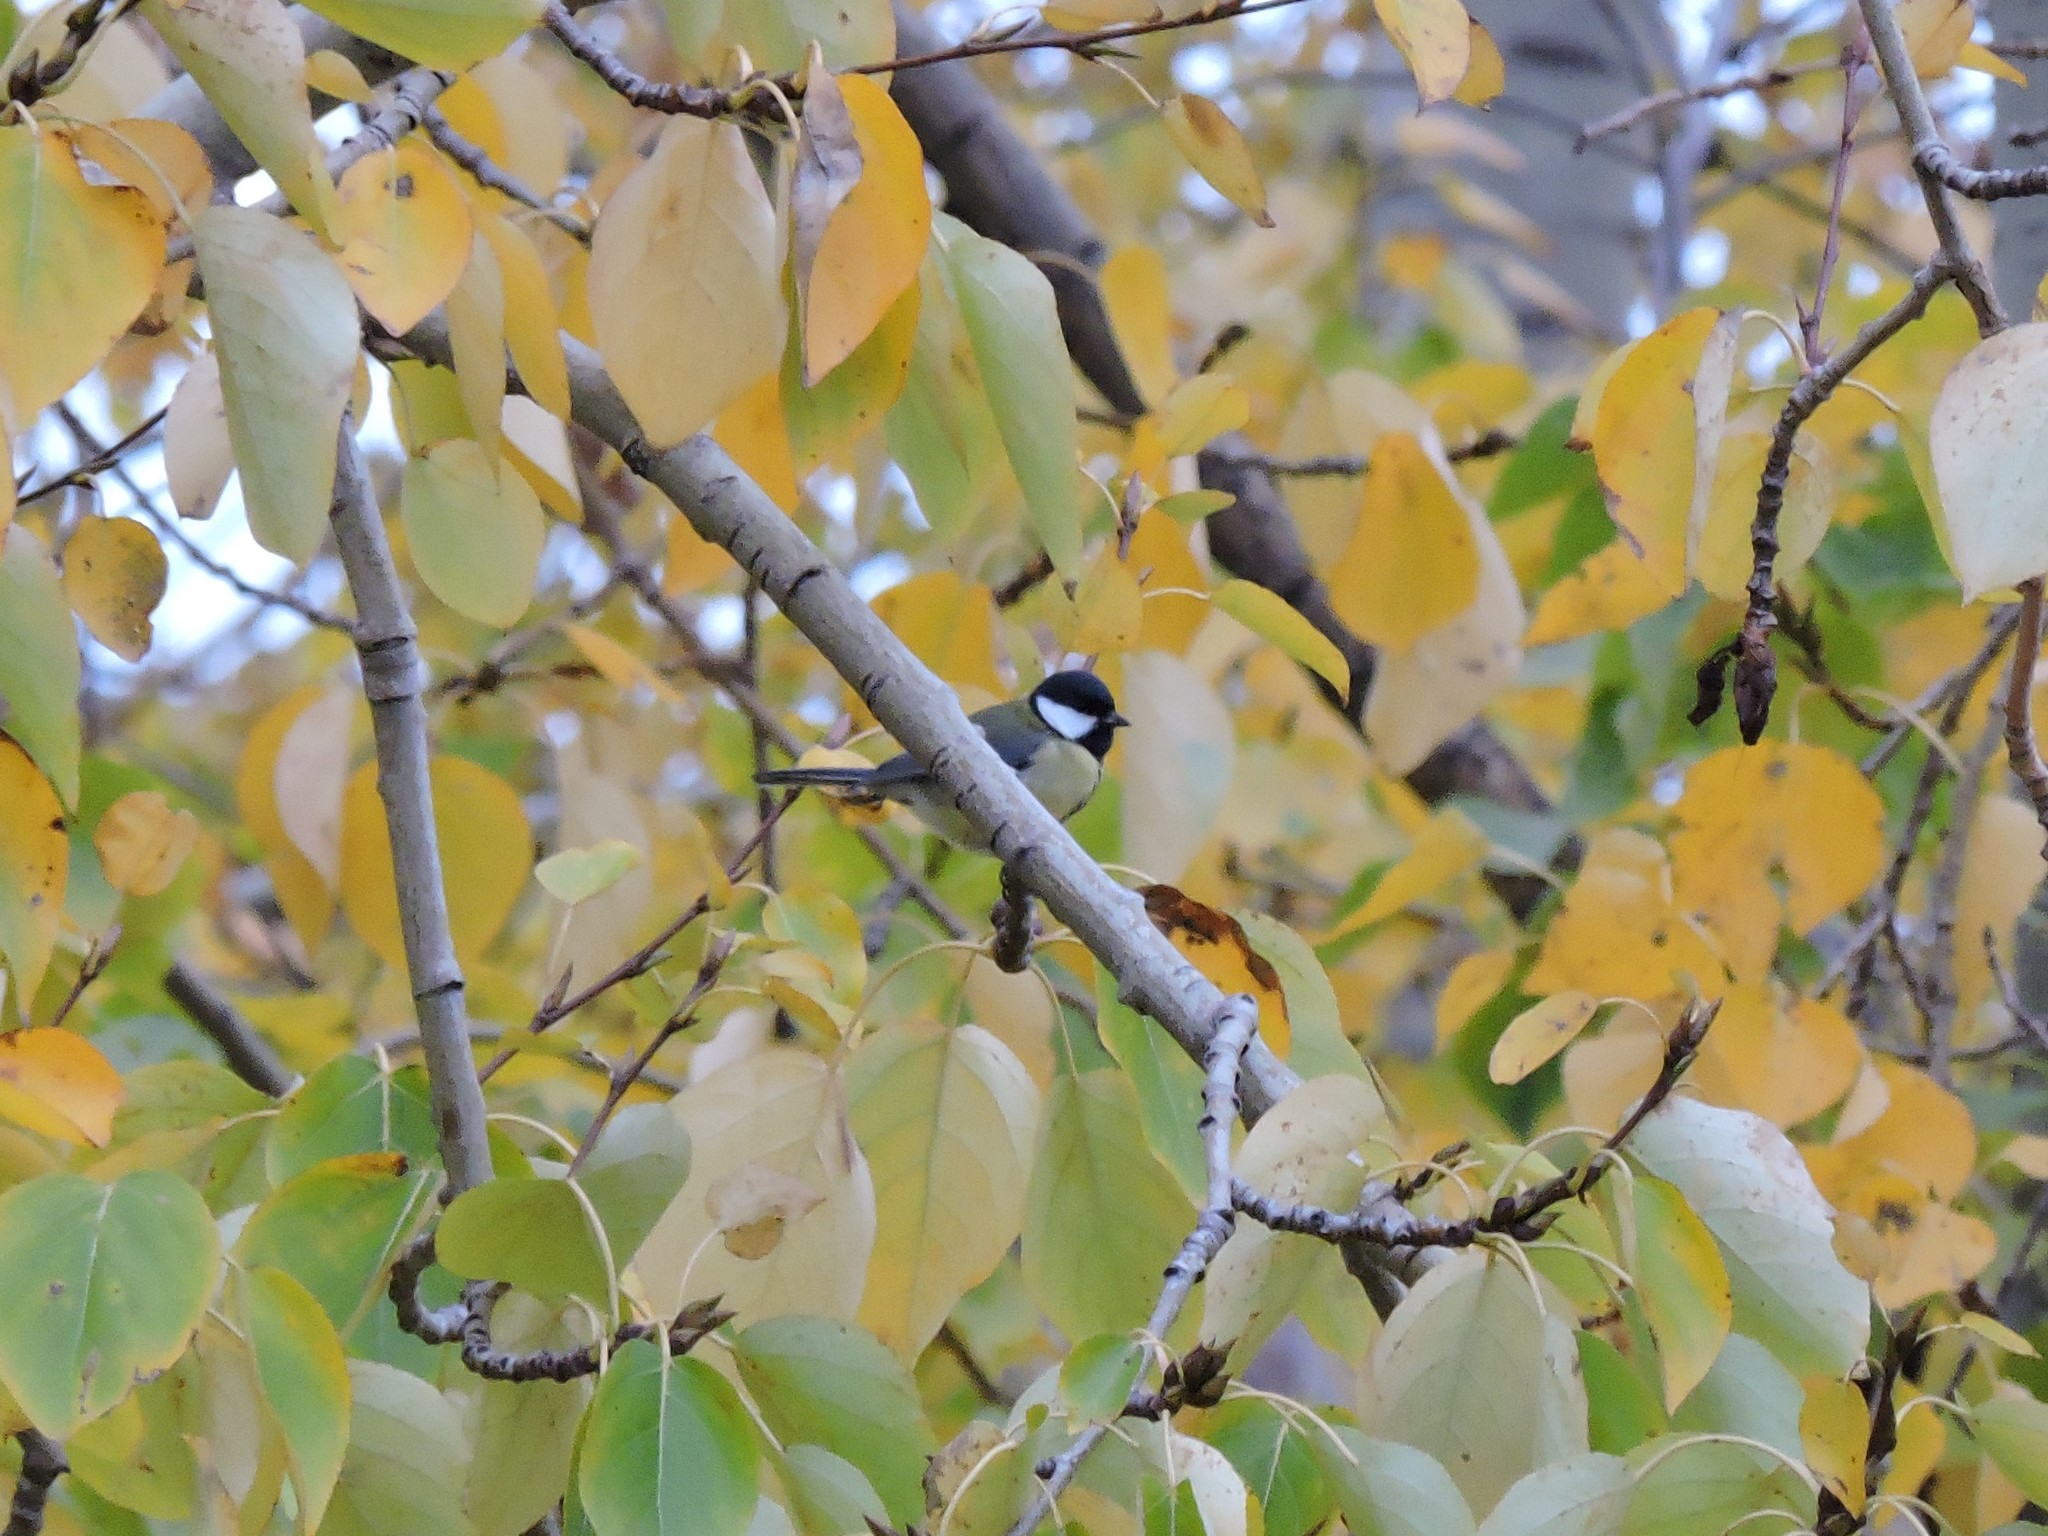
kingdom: Animalia
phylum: Chordata
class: Aves
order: Passeriformes
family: Paridae
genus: Parus
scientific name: Parus major
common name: Great tit
